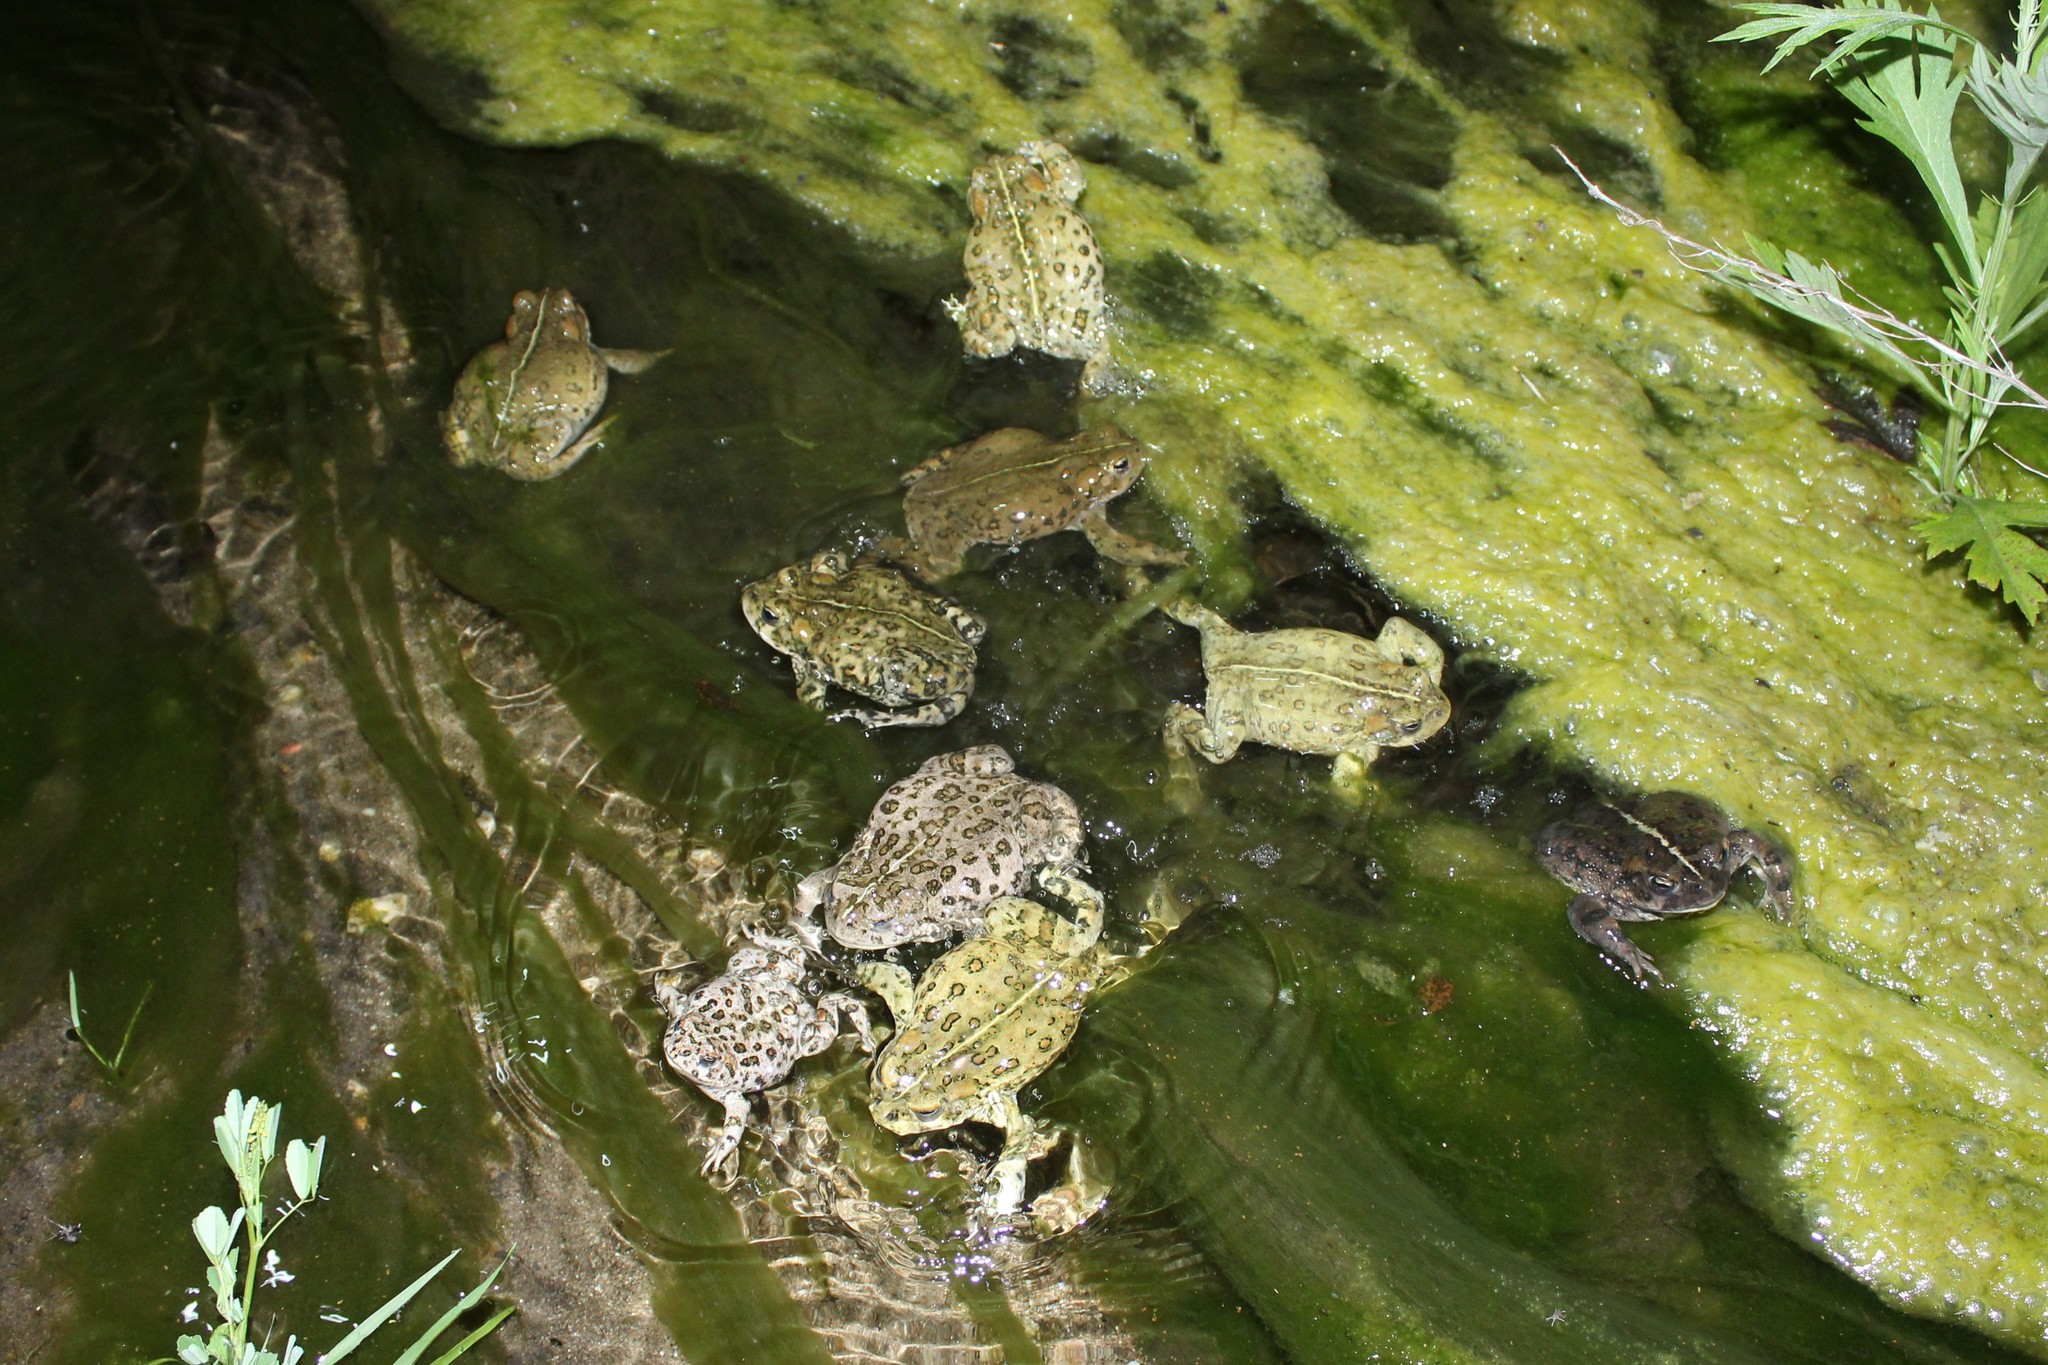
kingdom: Animalia
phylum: Chordata
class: Amphibia
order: Anura
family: Bufonidae
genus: Anaxyrus
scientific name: Anaxyrus boreas
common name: Western toad
